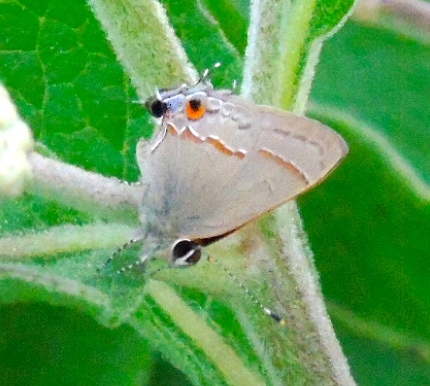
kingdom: Animalia
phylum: Arthropoda
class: Insecta
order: Lepidoptera
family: Lycaenidae
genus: Electrostrymon
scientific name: Electrostrymon endymion
